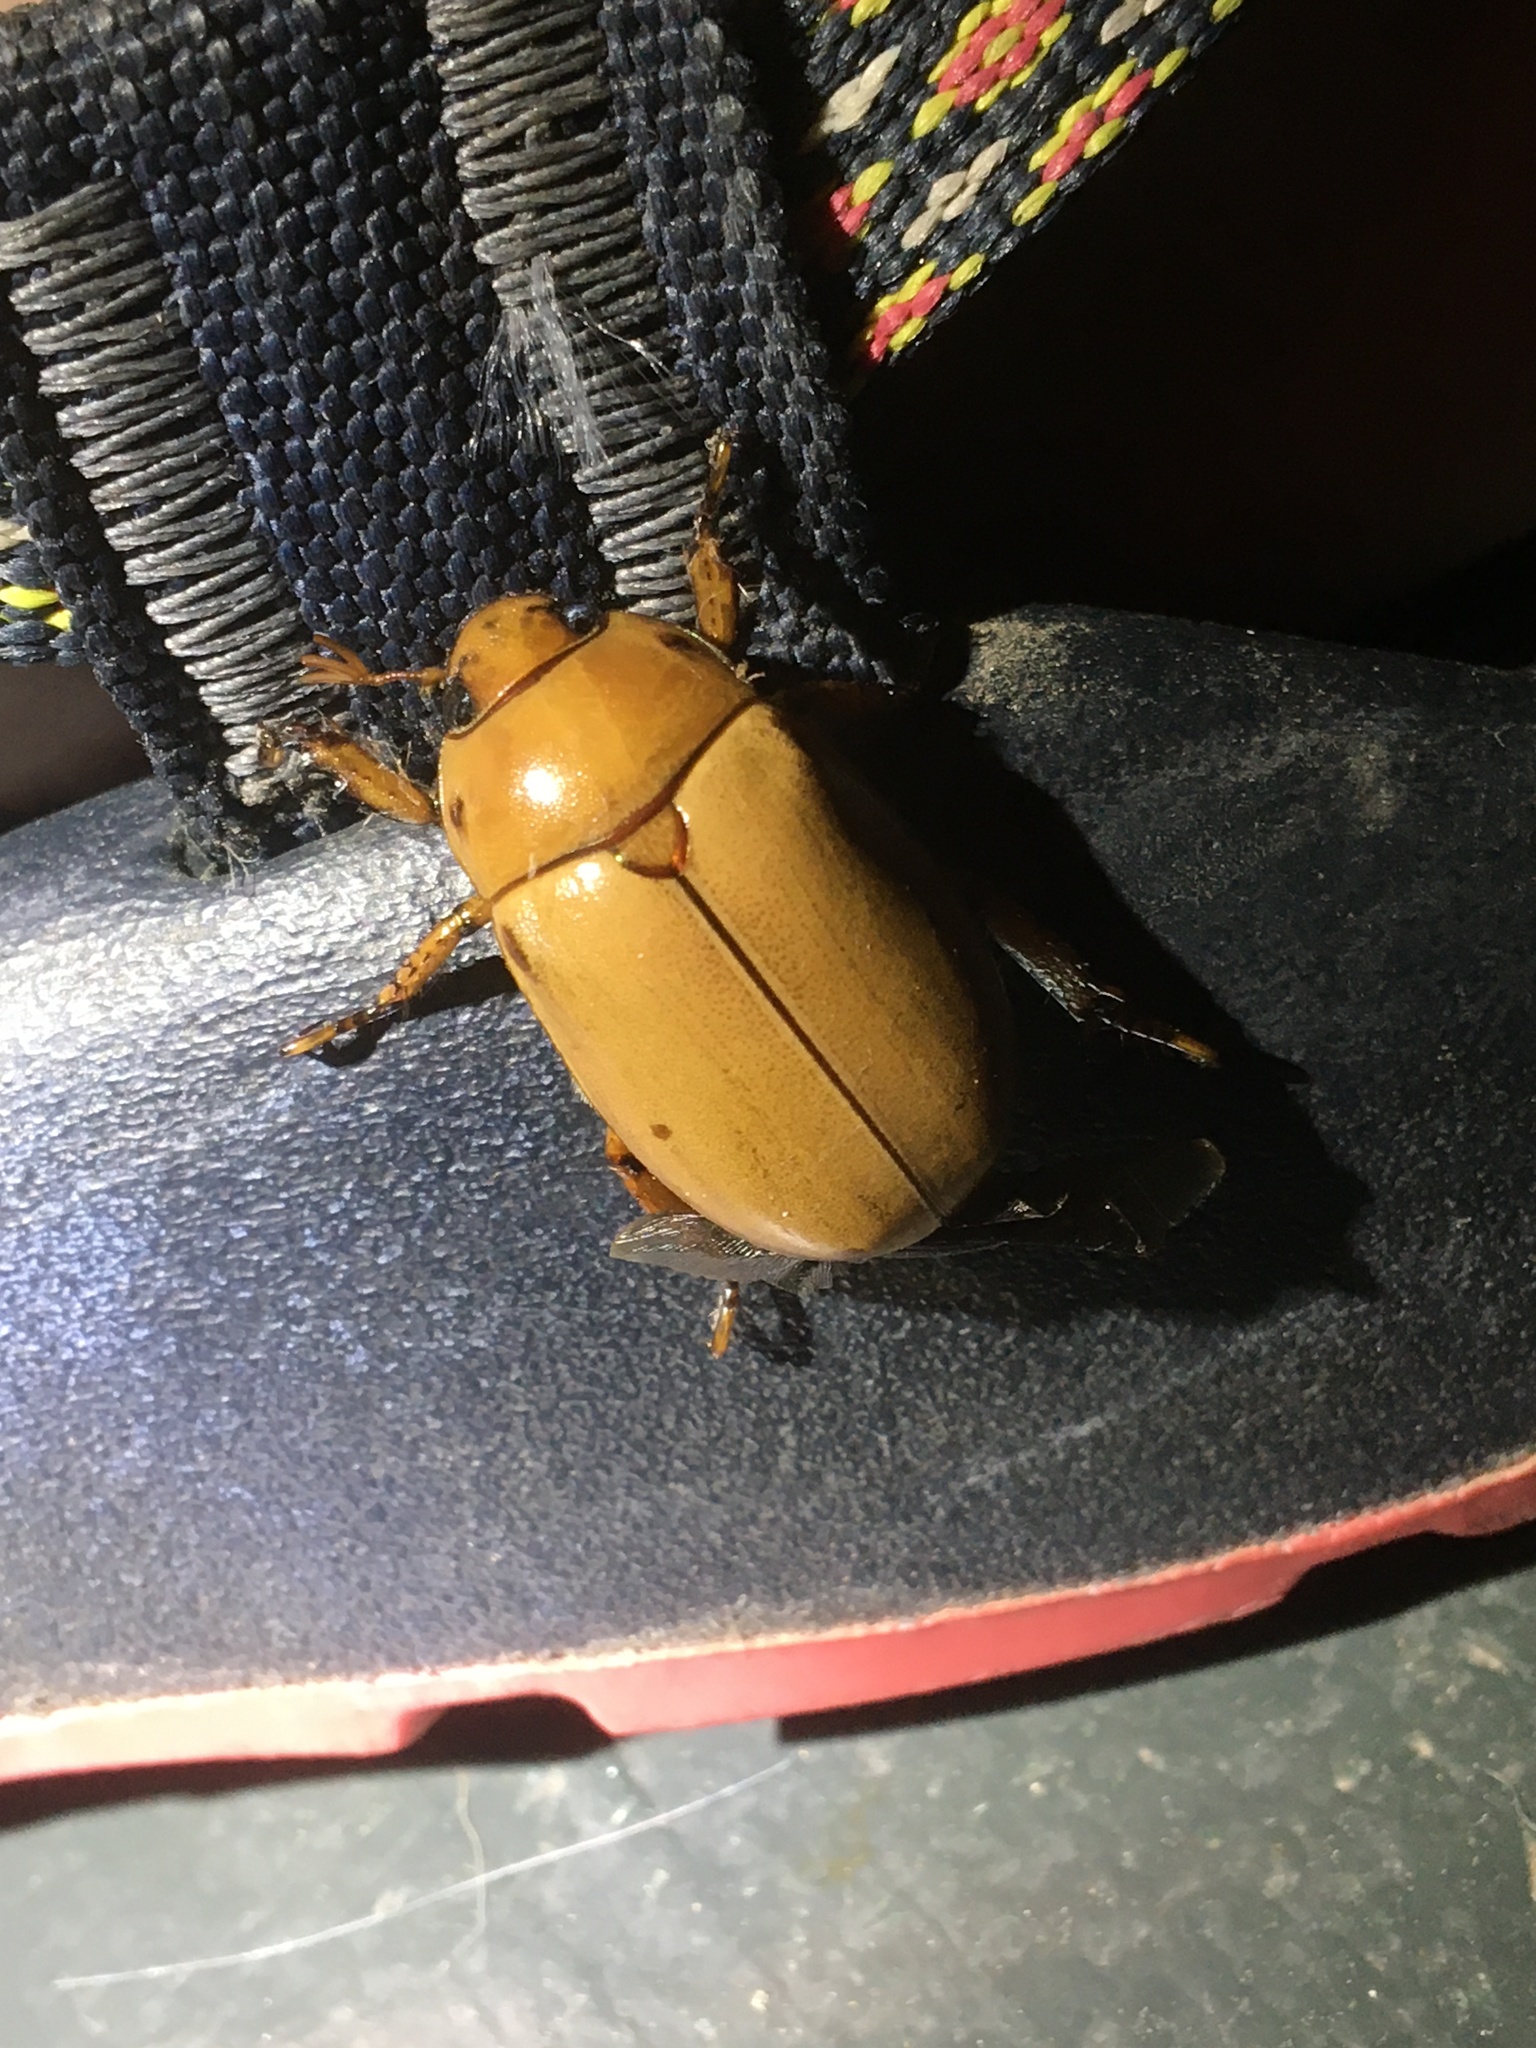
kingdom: Animalia
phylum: Arthropoda
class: Insecta
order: Coleoptera
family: Scarabaeidae
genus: Pelidnota
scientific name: Pelidnota punctata
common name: Grapevine beetle
